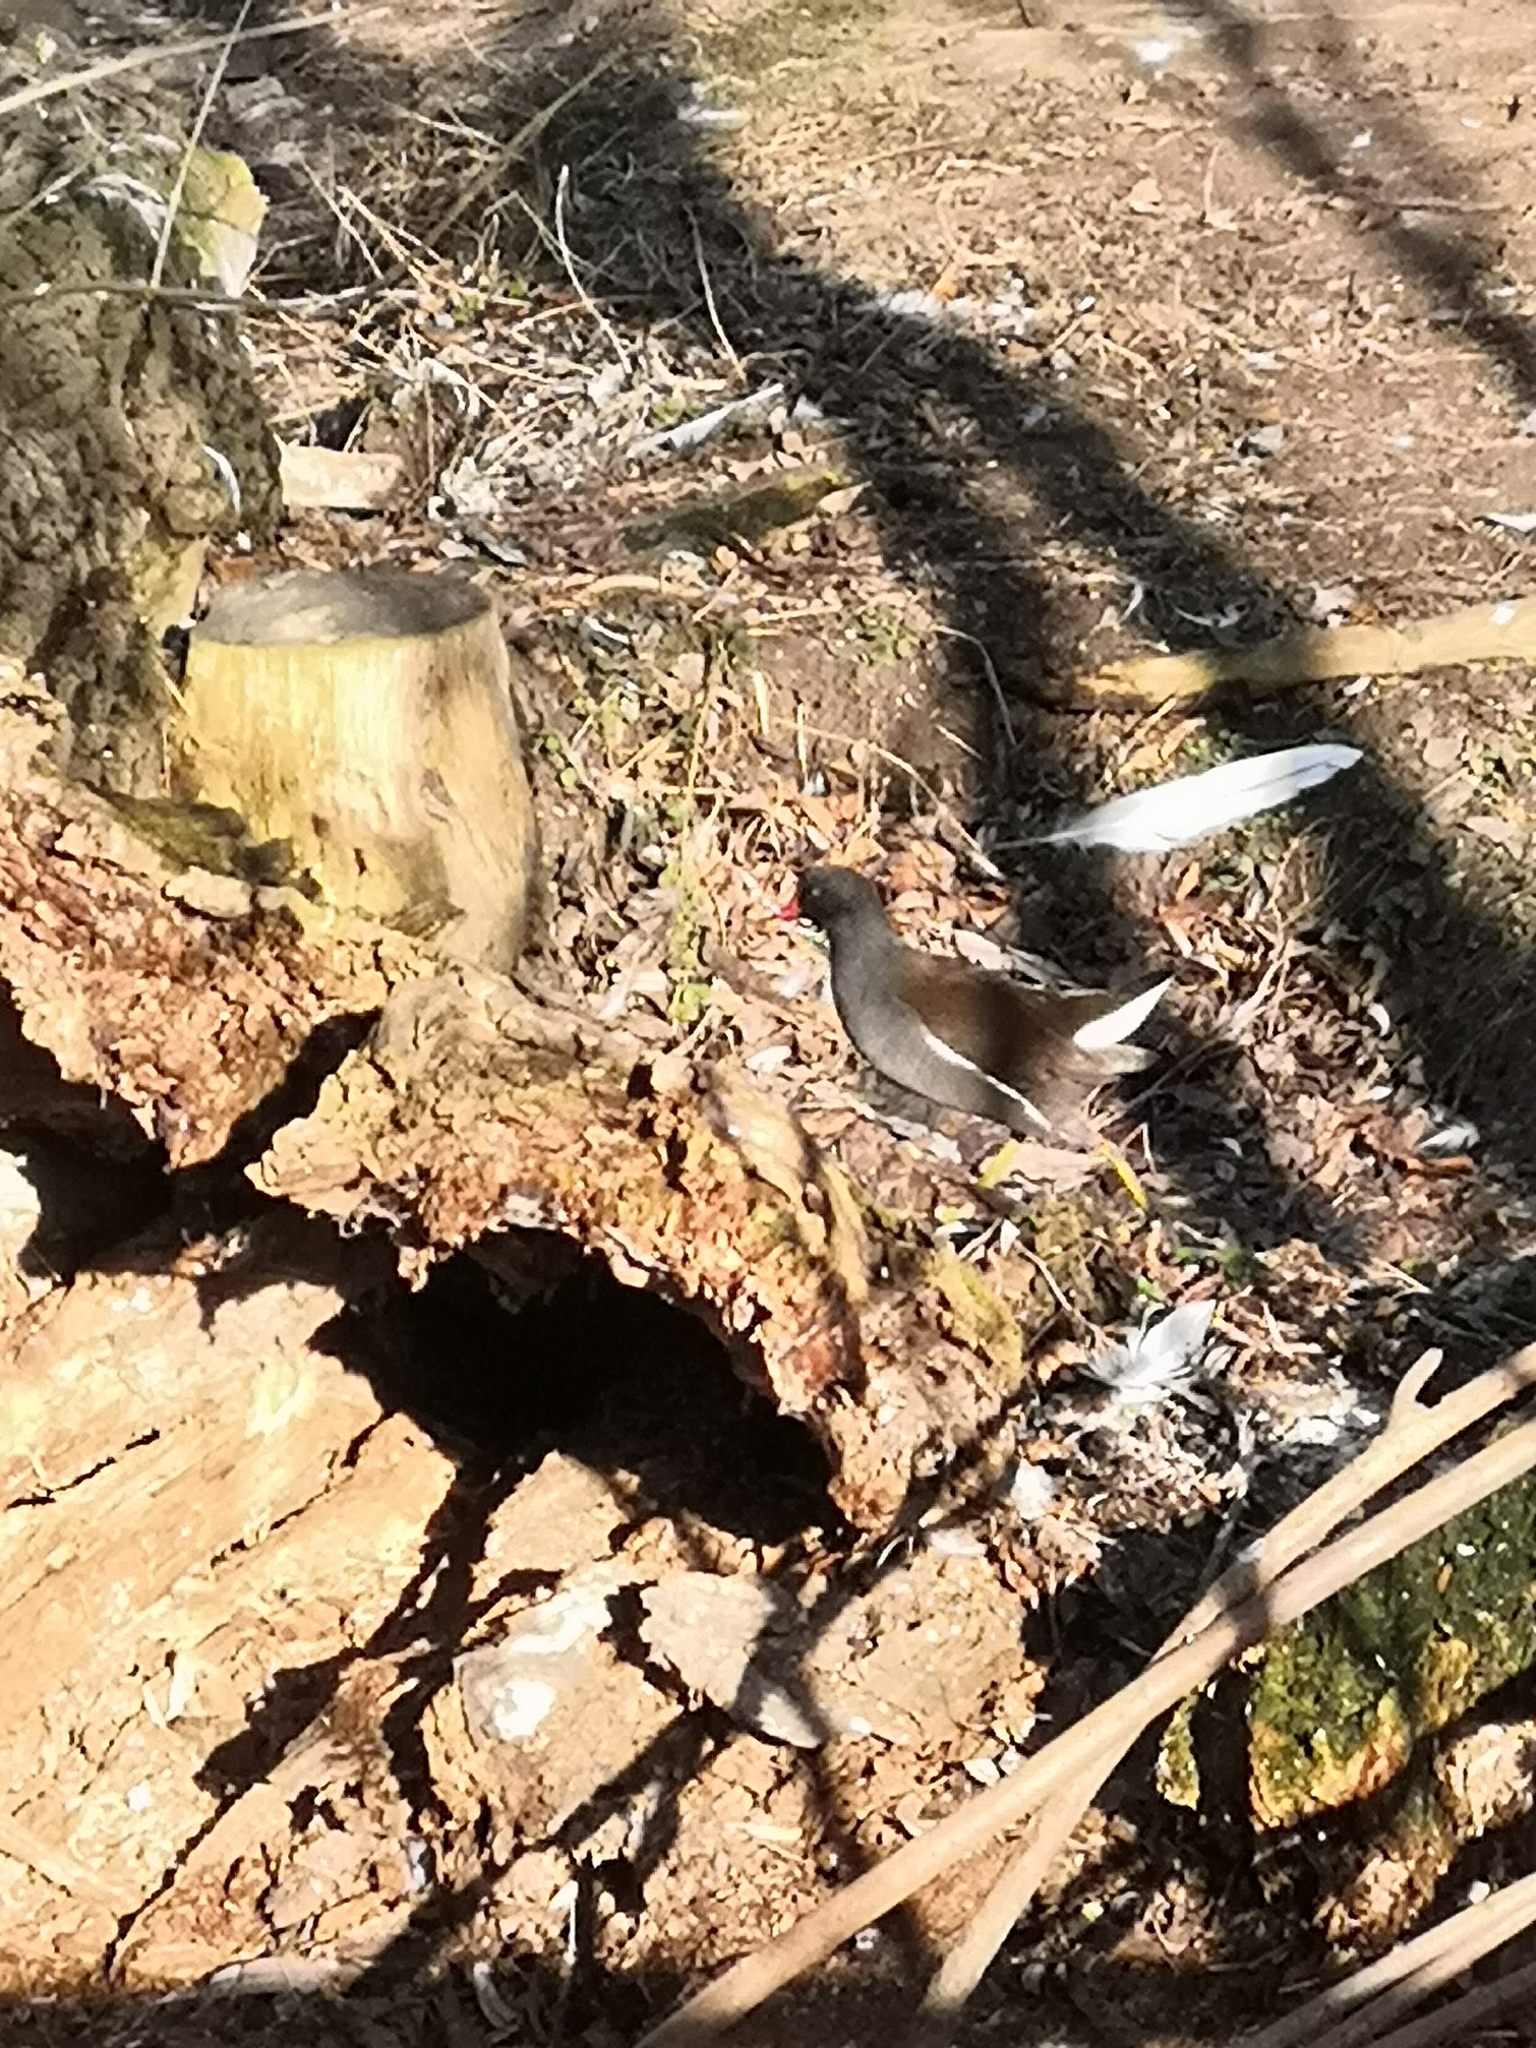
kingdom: Animalia
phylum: Chordata
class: Aves
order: Gruiformes
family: Rallidae
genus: Gallinula
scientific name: Gallinula chloropus
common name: Common moorhen
